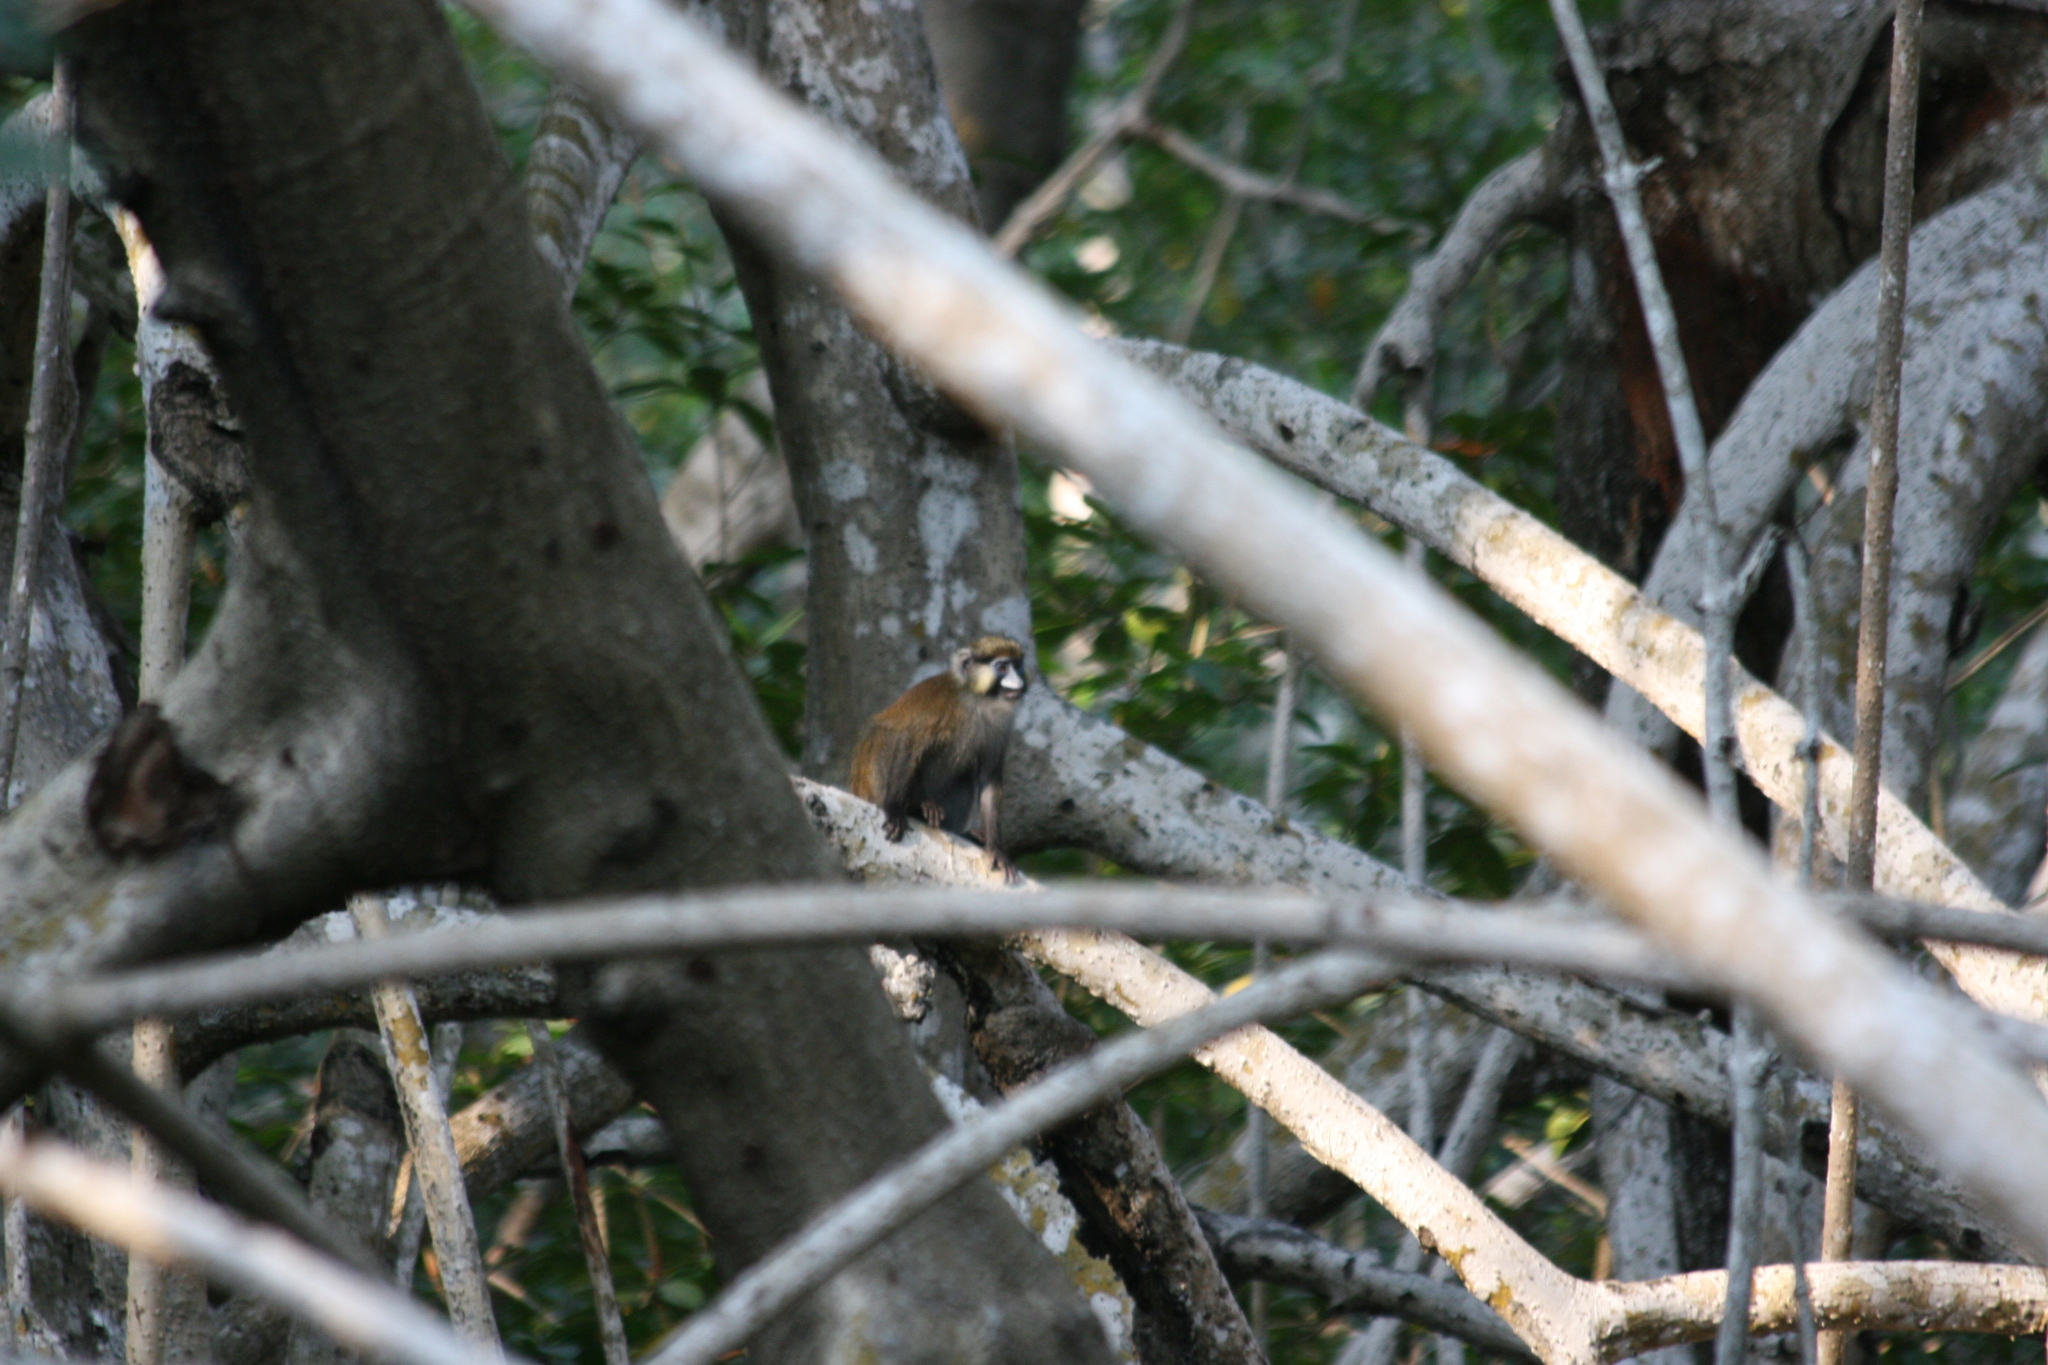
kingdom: Animalia
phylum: Chordata
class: Mammalia
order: Primates
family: Cercopithecidae
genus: Cercopithecus
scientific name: Cercopithecus cephus
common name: Moustached guenon
